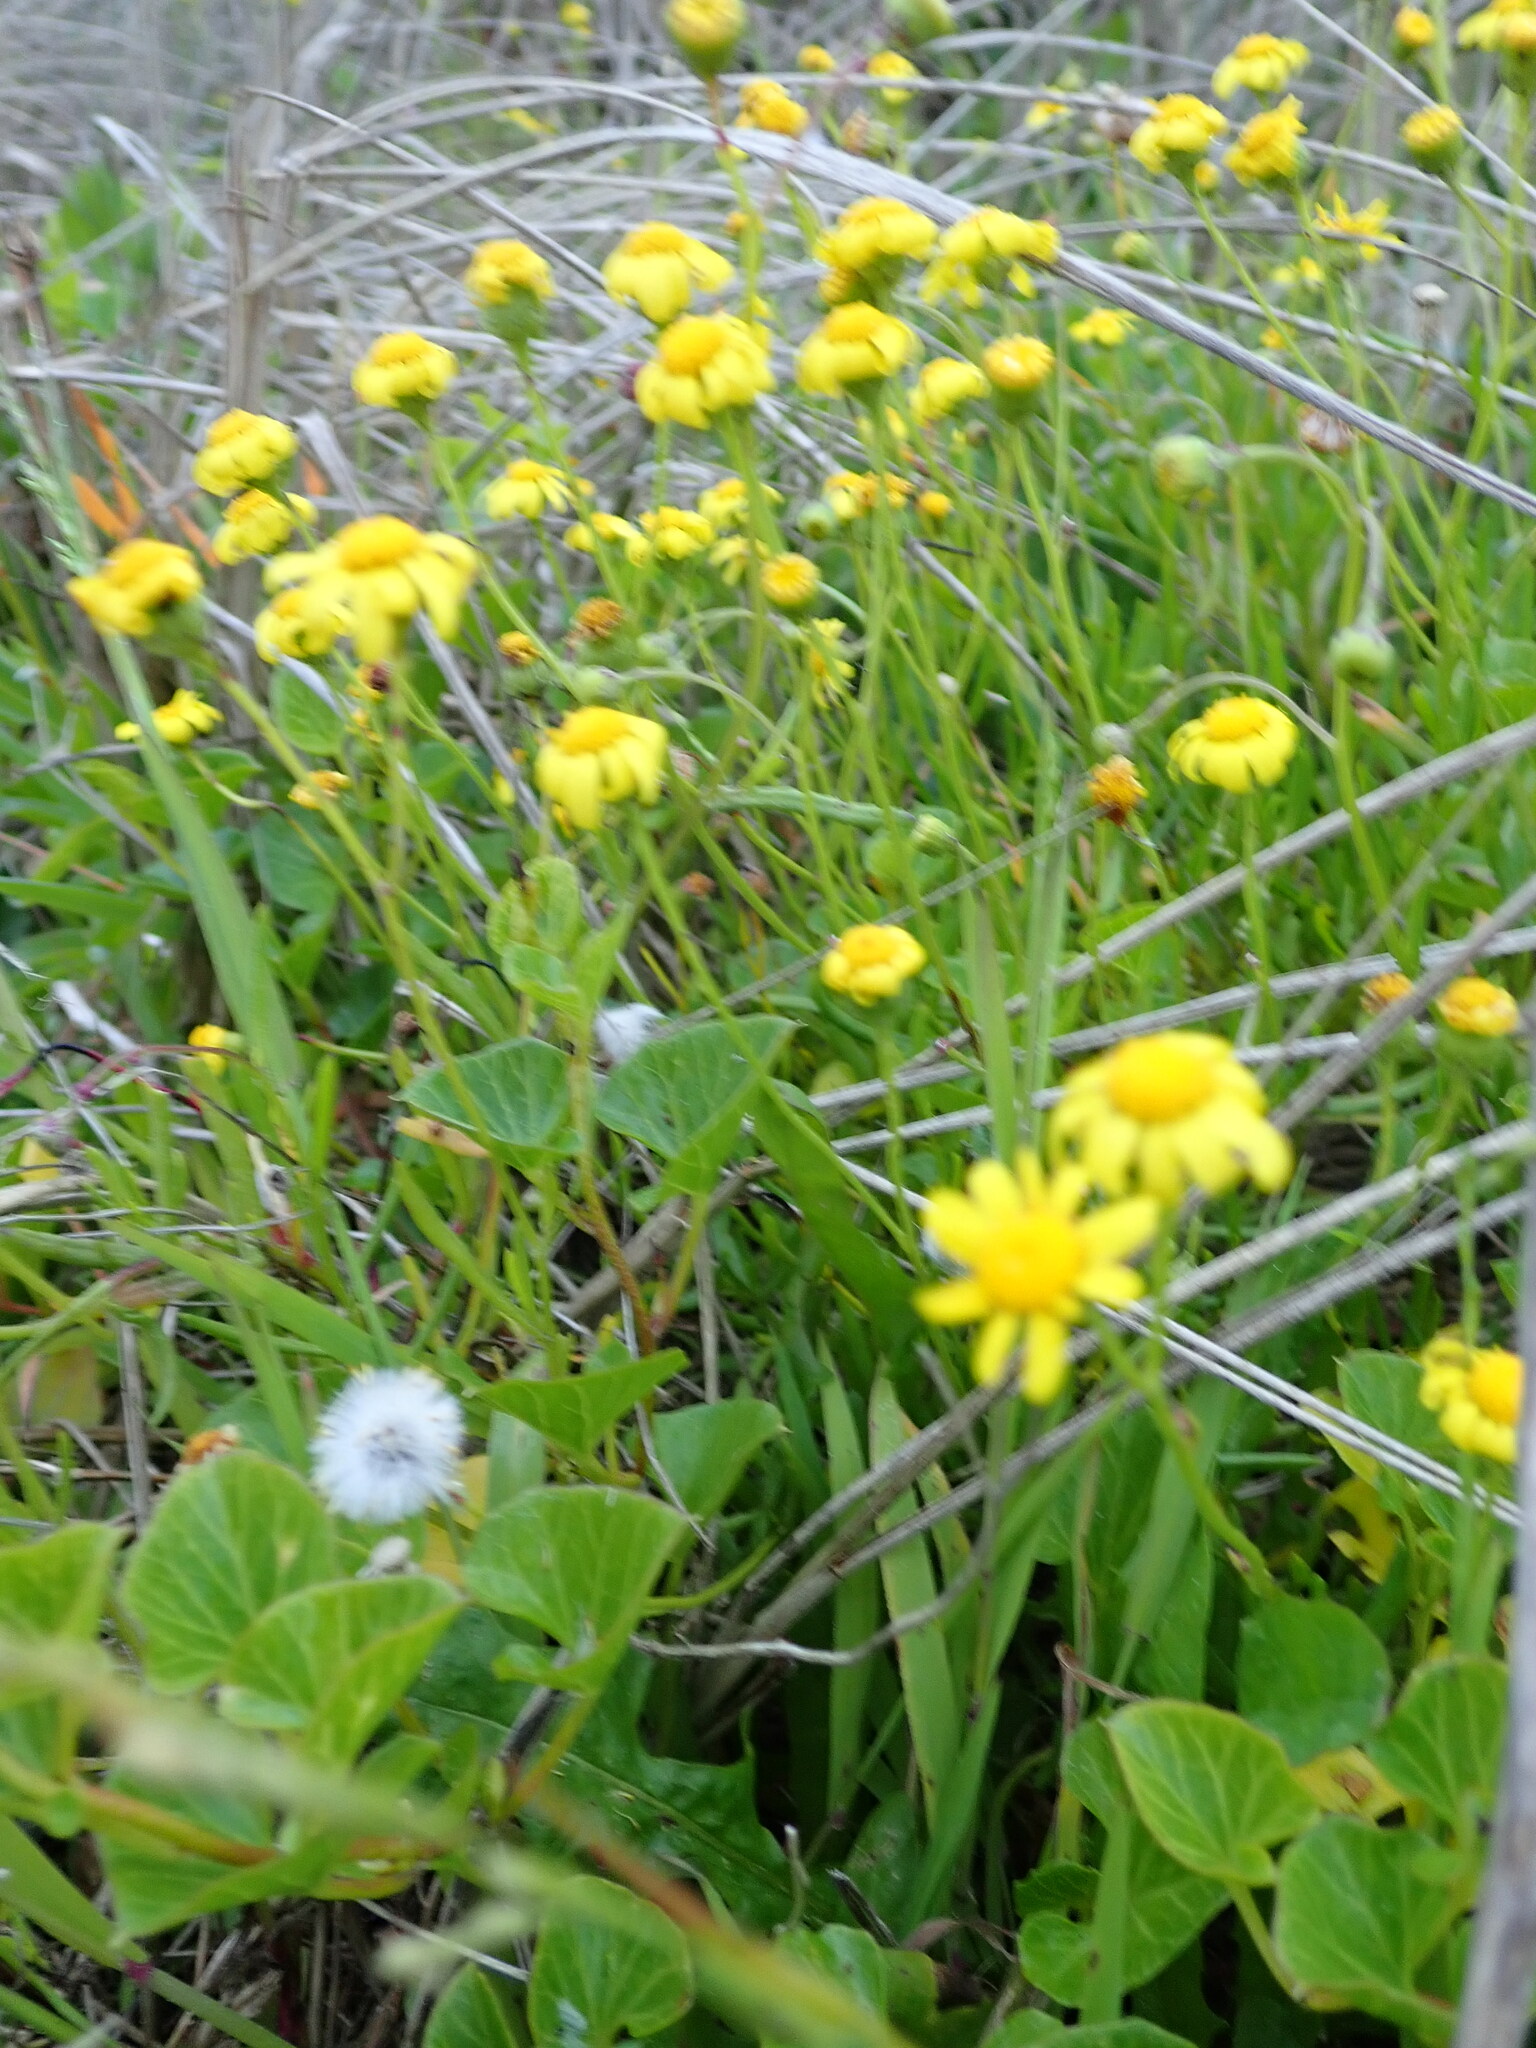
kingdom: Plantae
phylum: Tracheophyta
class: Magnoliopsida
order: Asterales
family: Asteraceae
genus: Senecio
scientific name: Senecio skirrhodon
